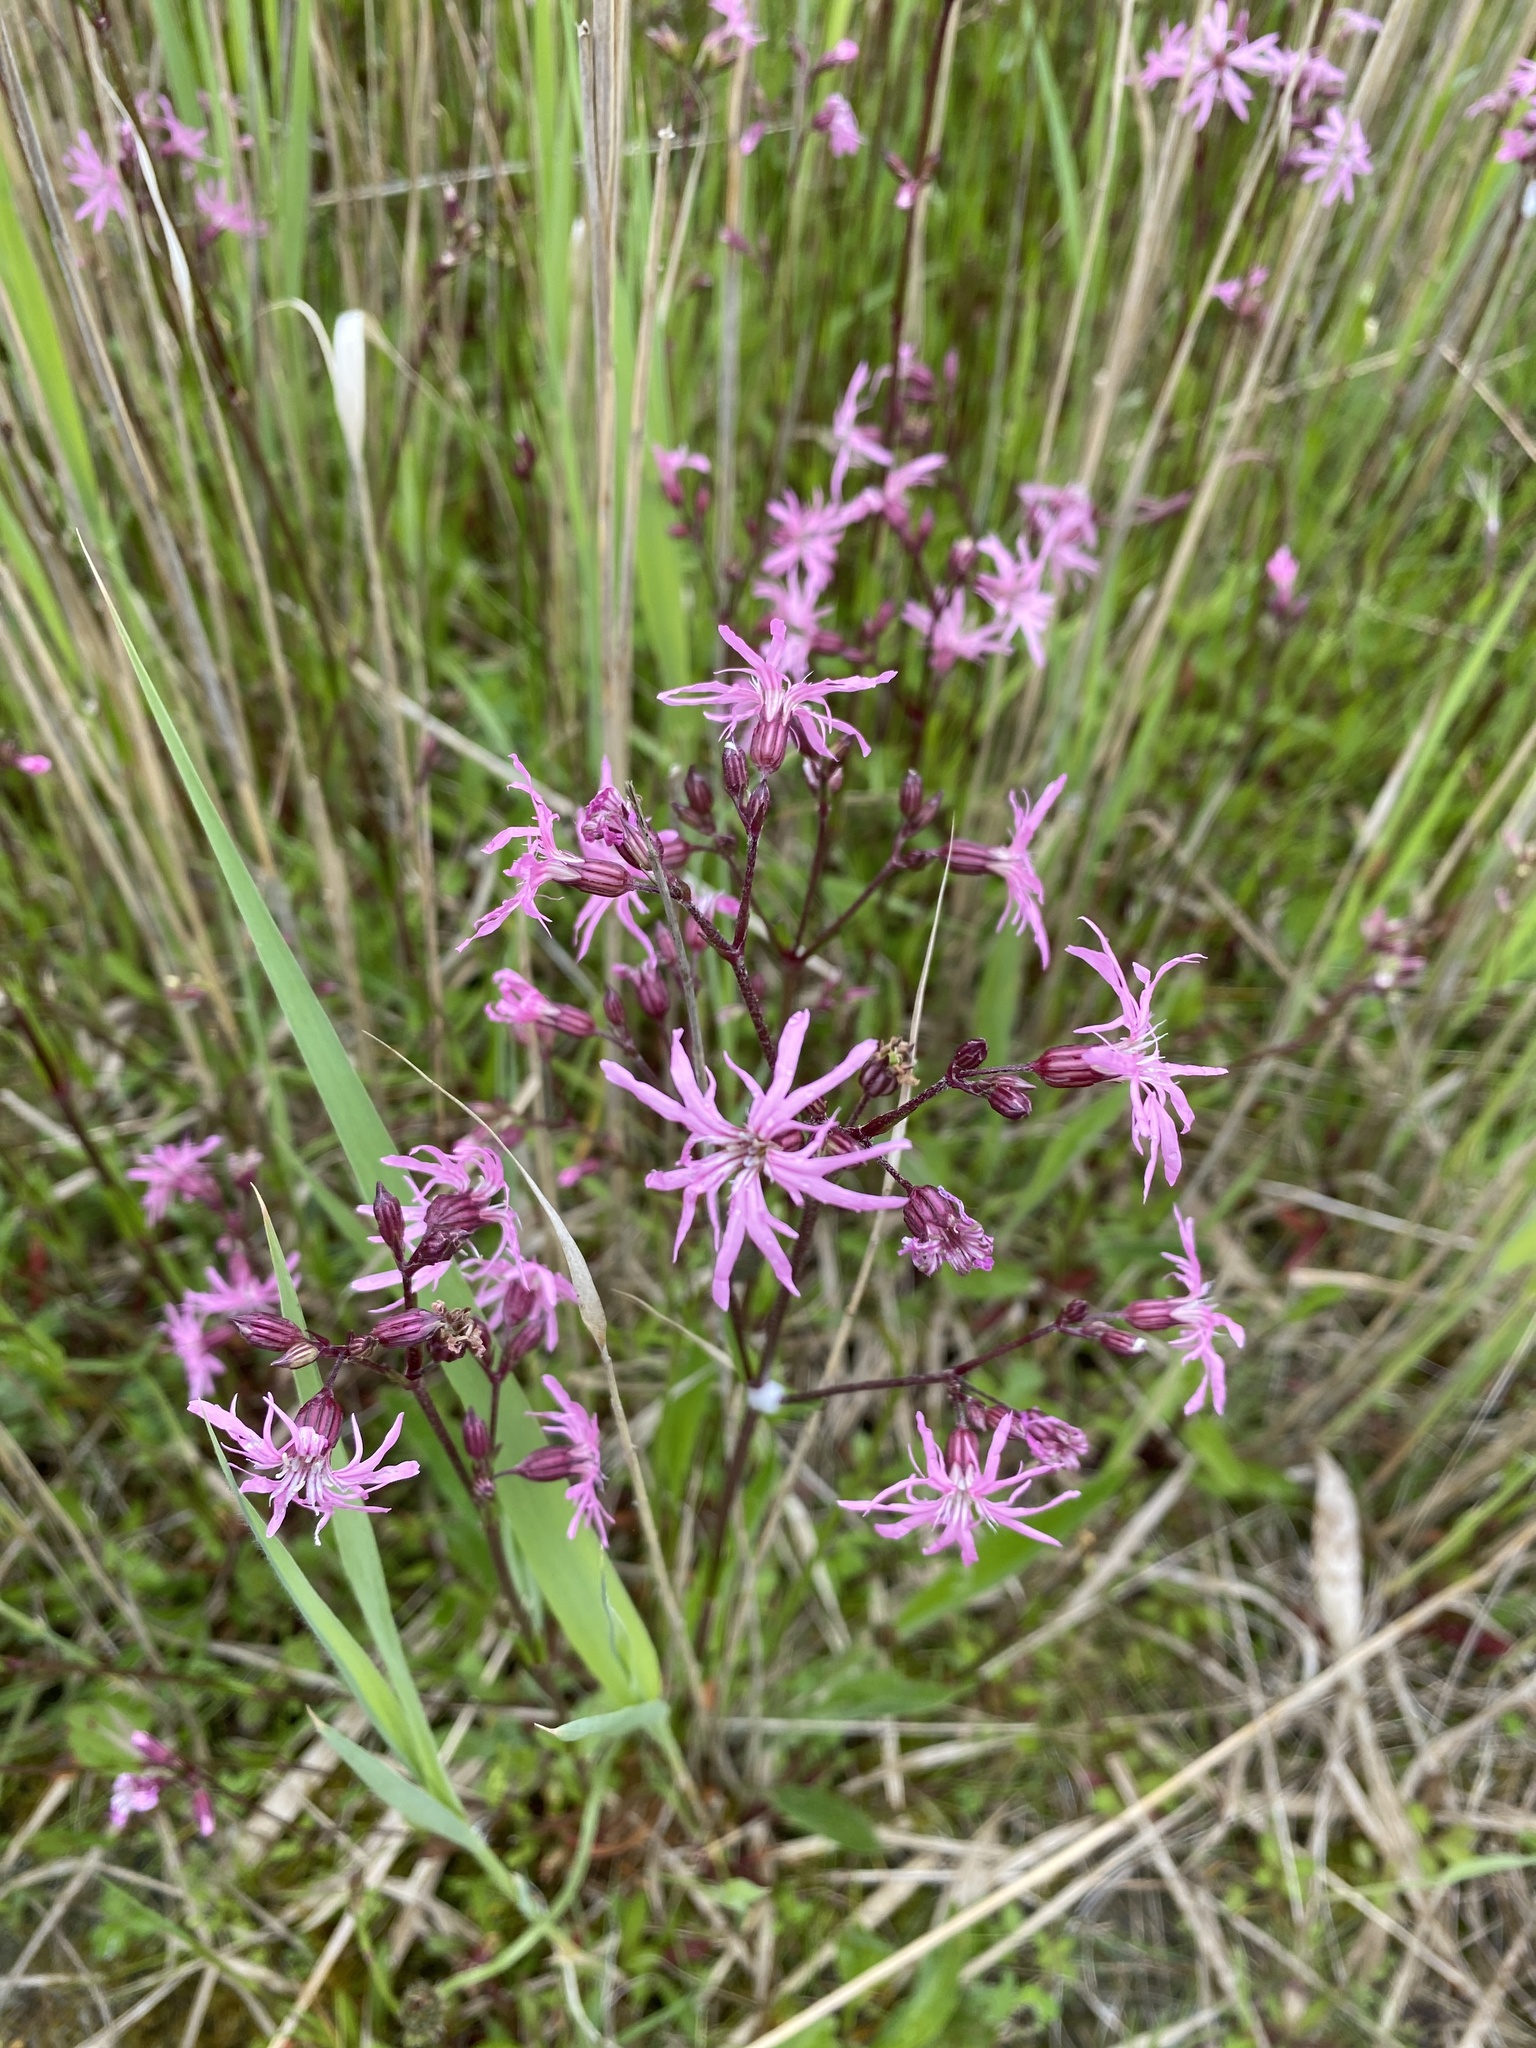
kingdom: Plantae
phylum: Tracheophyta
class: Magnoliopsida
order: Caryophyllales
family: Caryophyllaceae
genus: Silene
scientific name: Silene flos-cuculi
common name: Ragged-robin
